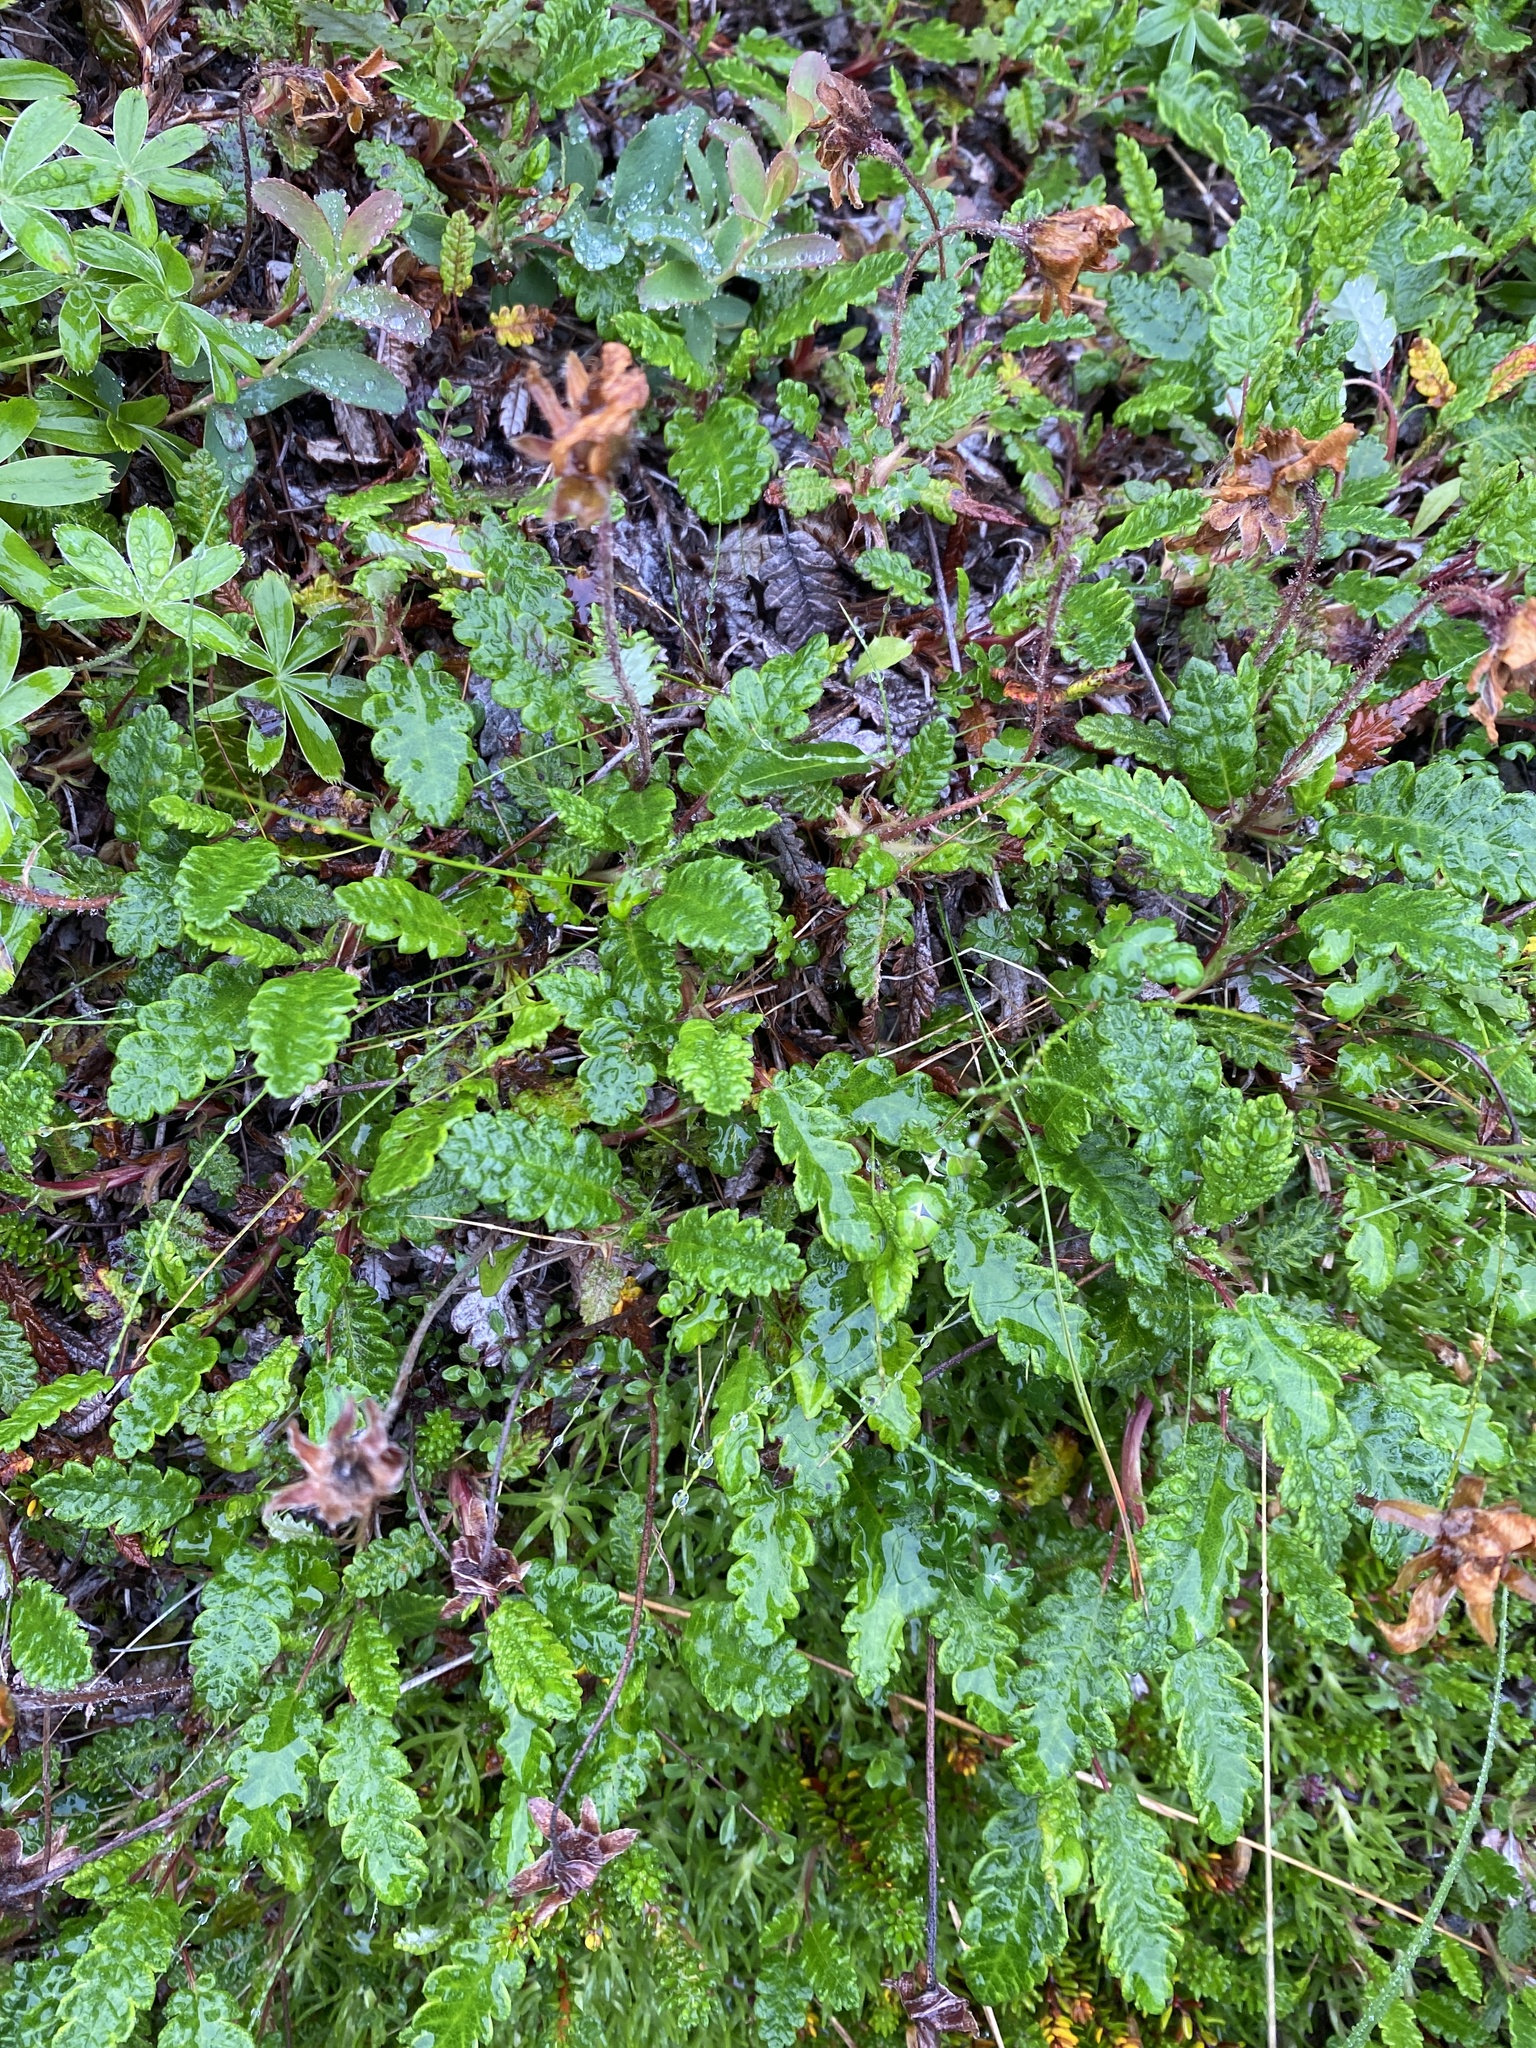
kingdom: Plantae
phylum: Tracheophyta
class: Magnoliopsida
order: Rosales
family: Rosaceae
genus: Dryas
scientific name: Dryas octopetala
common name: Eight-petal mountain-avens
